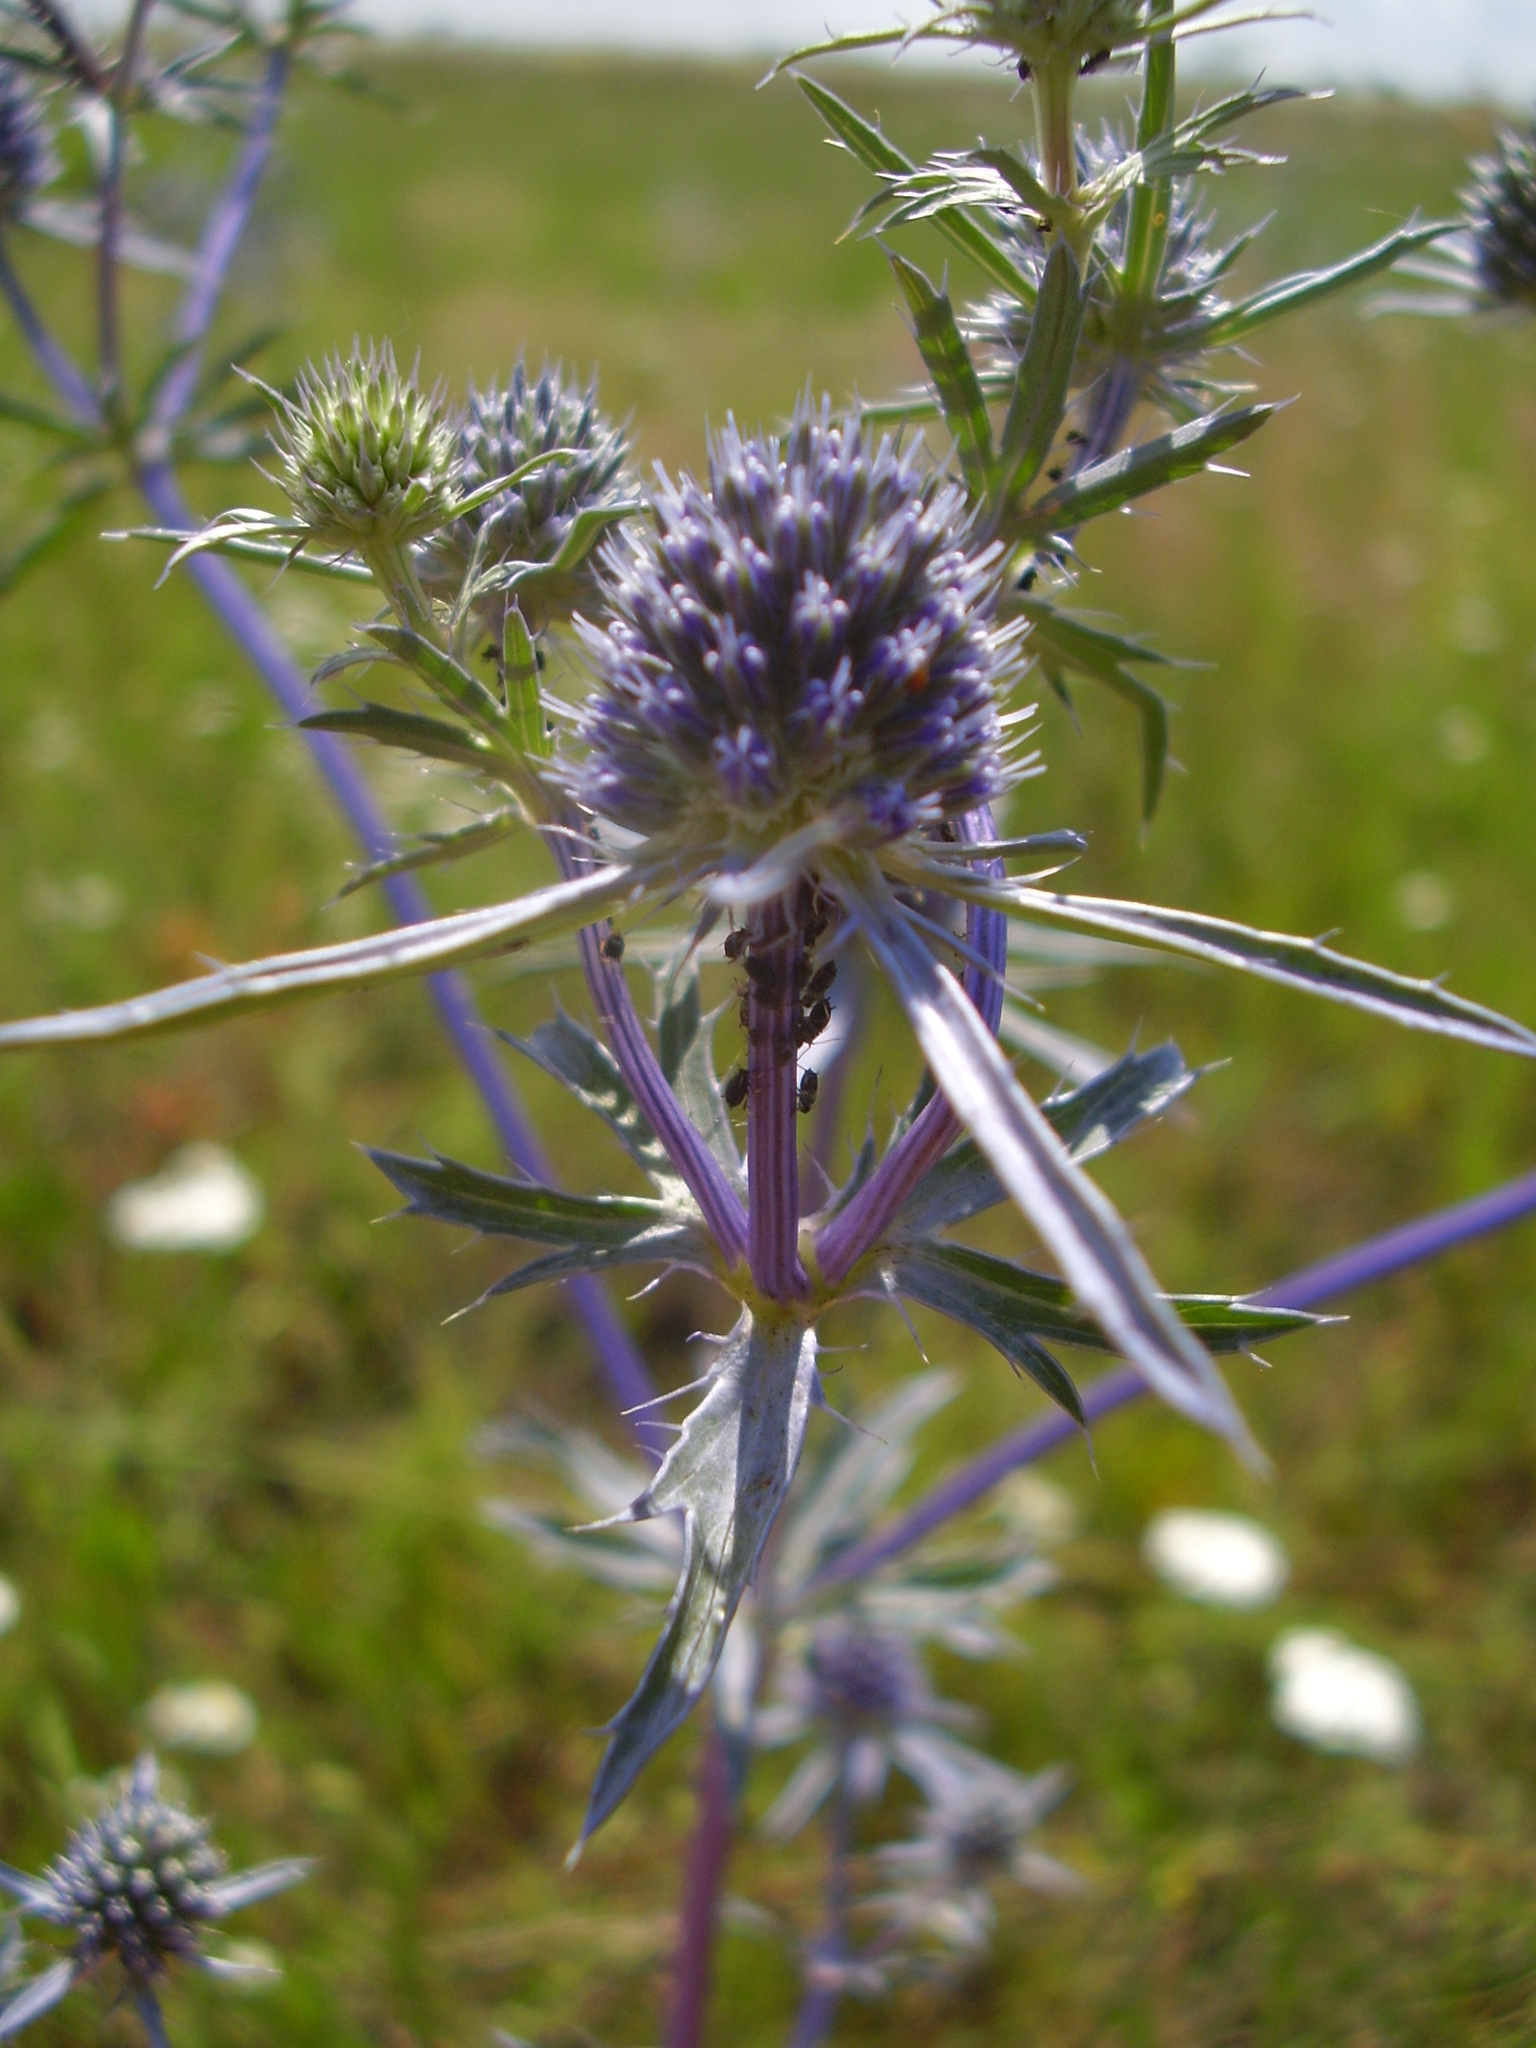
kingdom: Plantae
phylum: Tracheophyta
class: Magnoliopsida
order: Apiales
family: Apiaceae
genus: Eryngium
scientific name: Eryngium planum
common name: Blue eryngo
